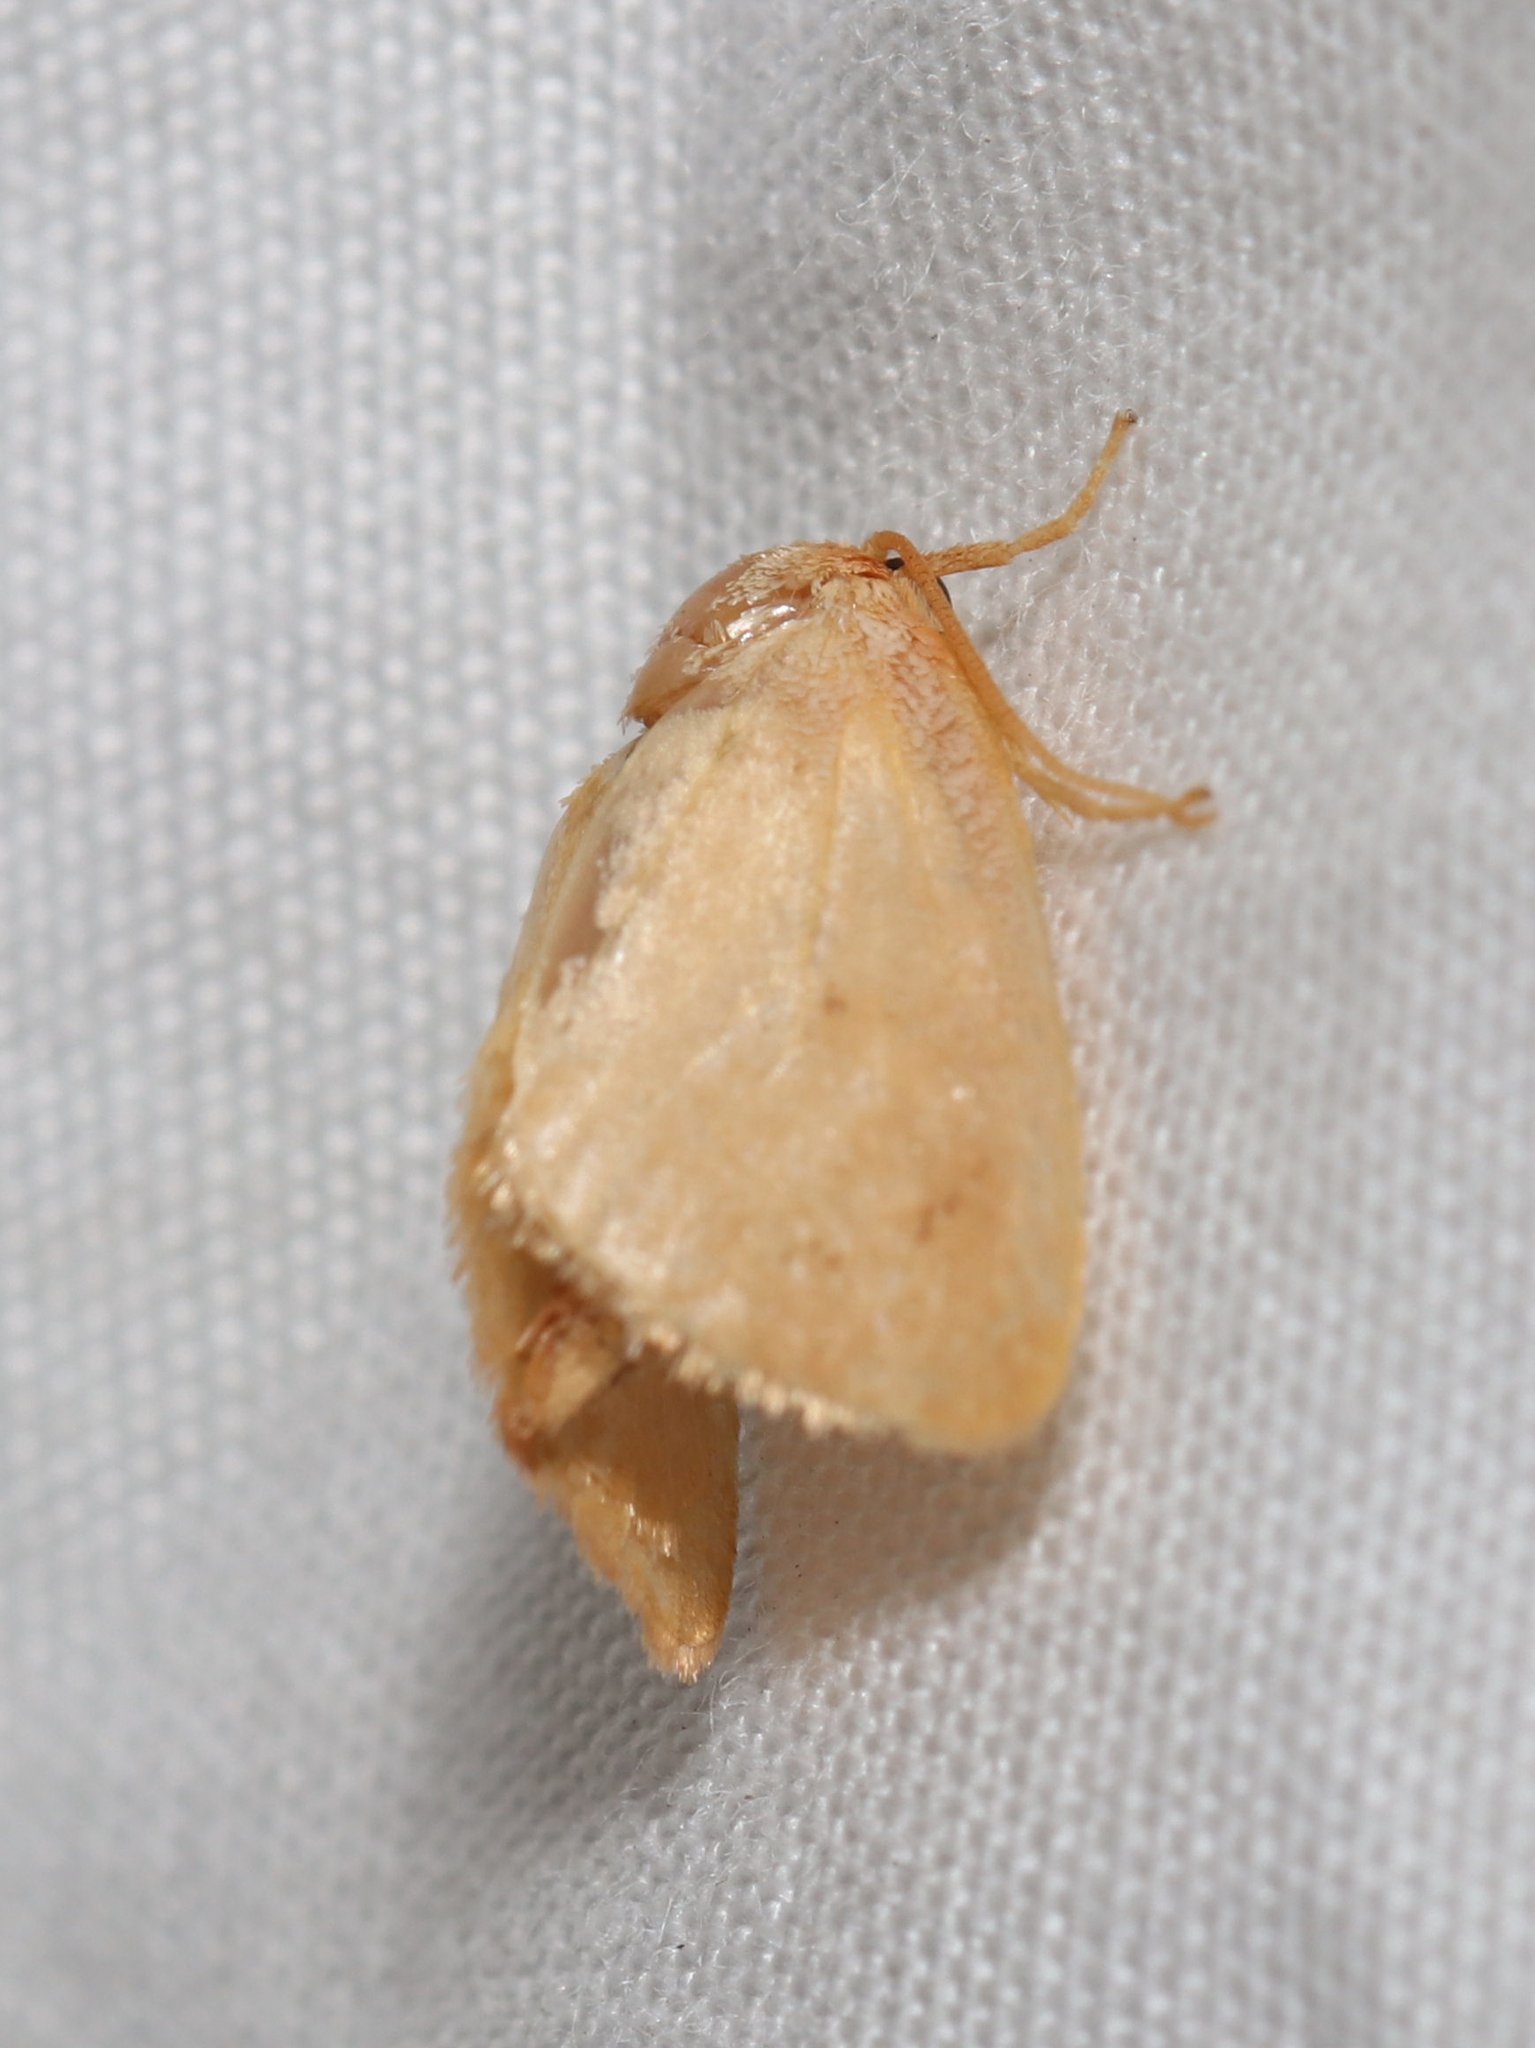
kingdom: Animalia
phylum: Arthropoda
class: Insecta
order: Lepidoptera
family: Limacodidae
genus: Tortricidia
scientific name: Tortricidia pallida
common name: Red-crossed button slug moth
